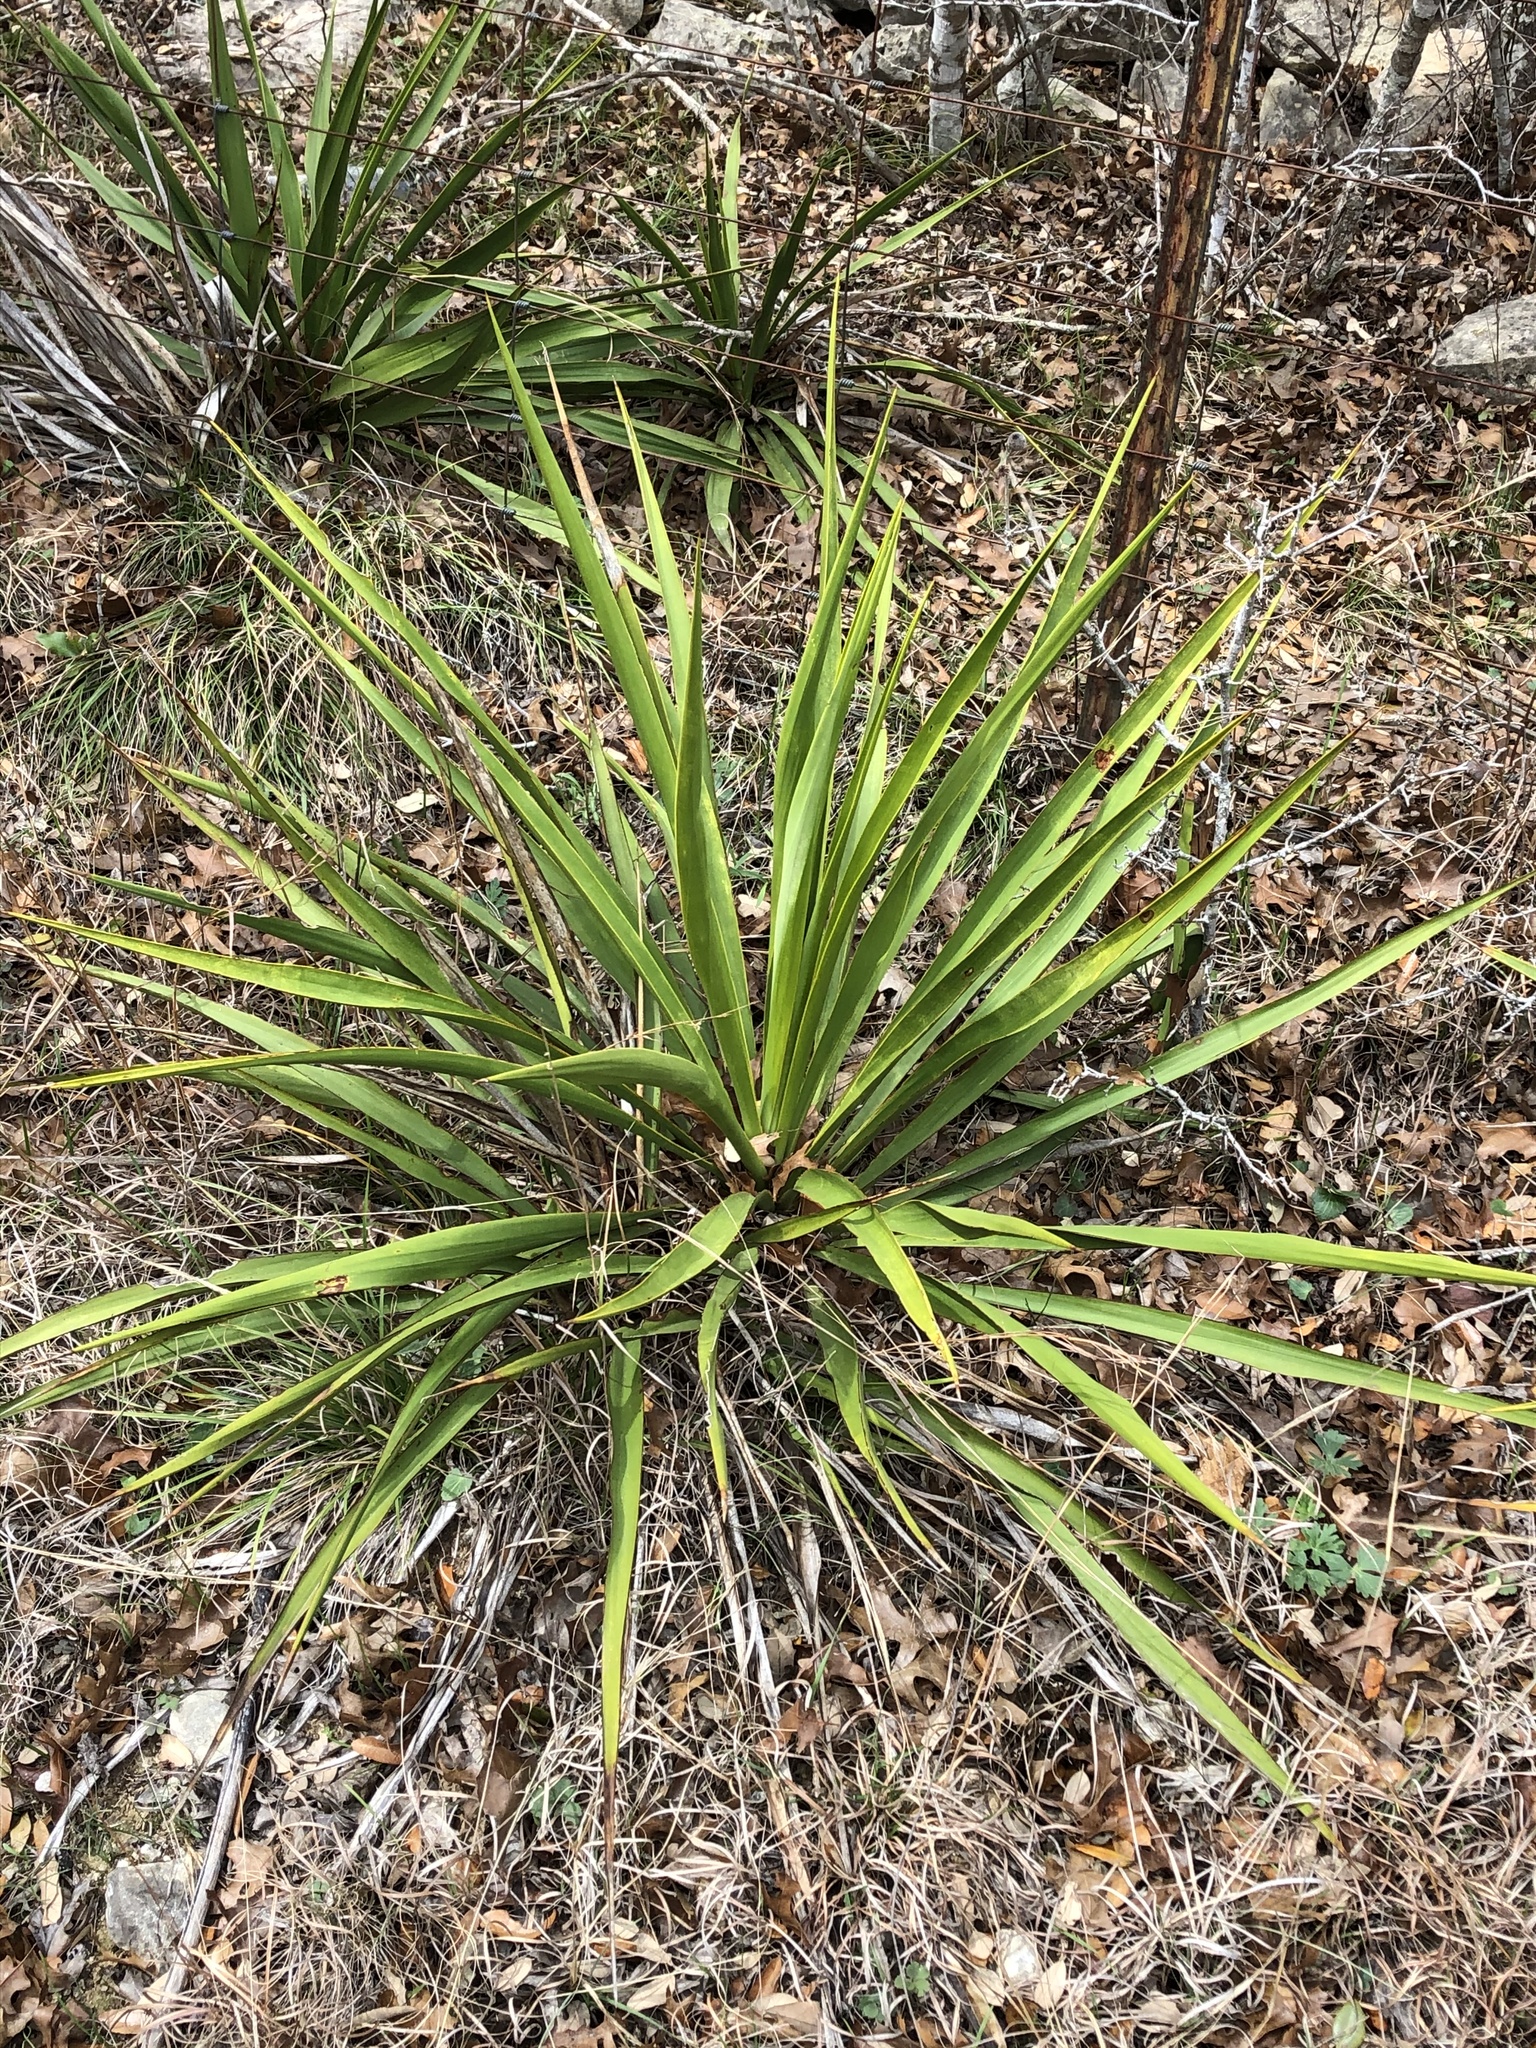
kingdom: Plantae
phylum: Tracheophyta
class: Liliopsida
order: Asparagales
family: Asparagaceae
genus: Yucca
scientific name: Yucca rupicola
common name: Twisted-leaf spanish-dagger
